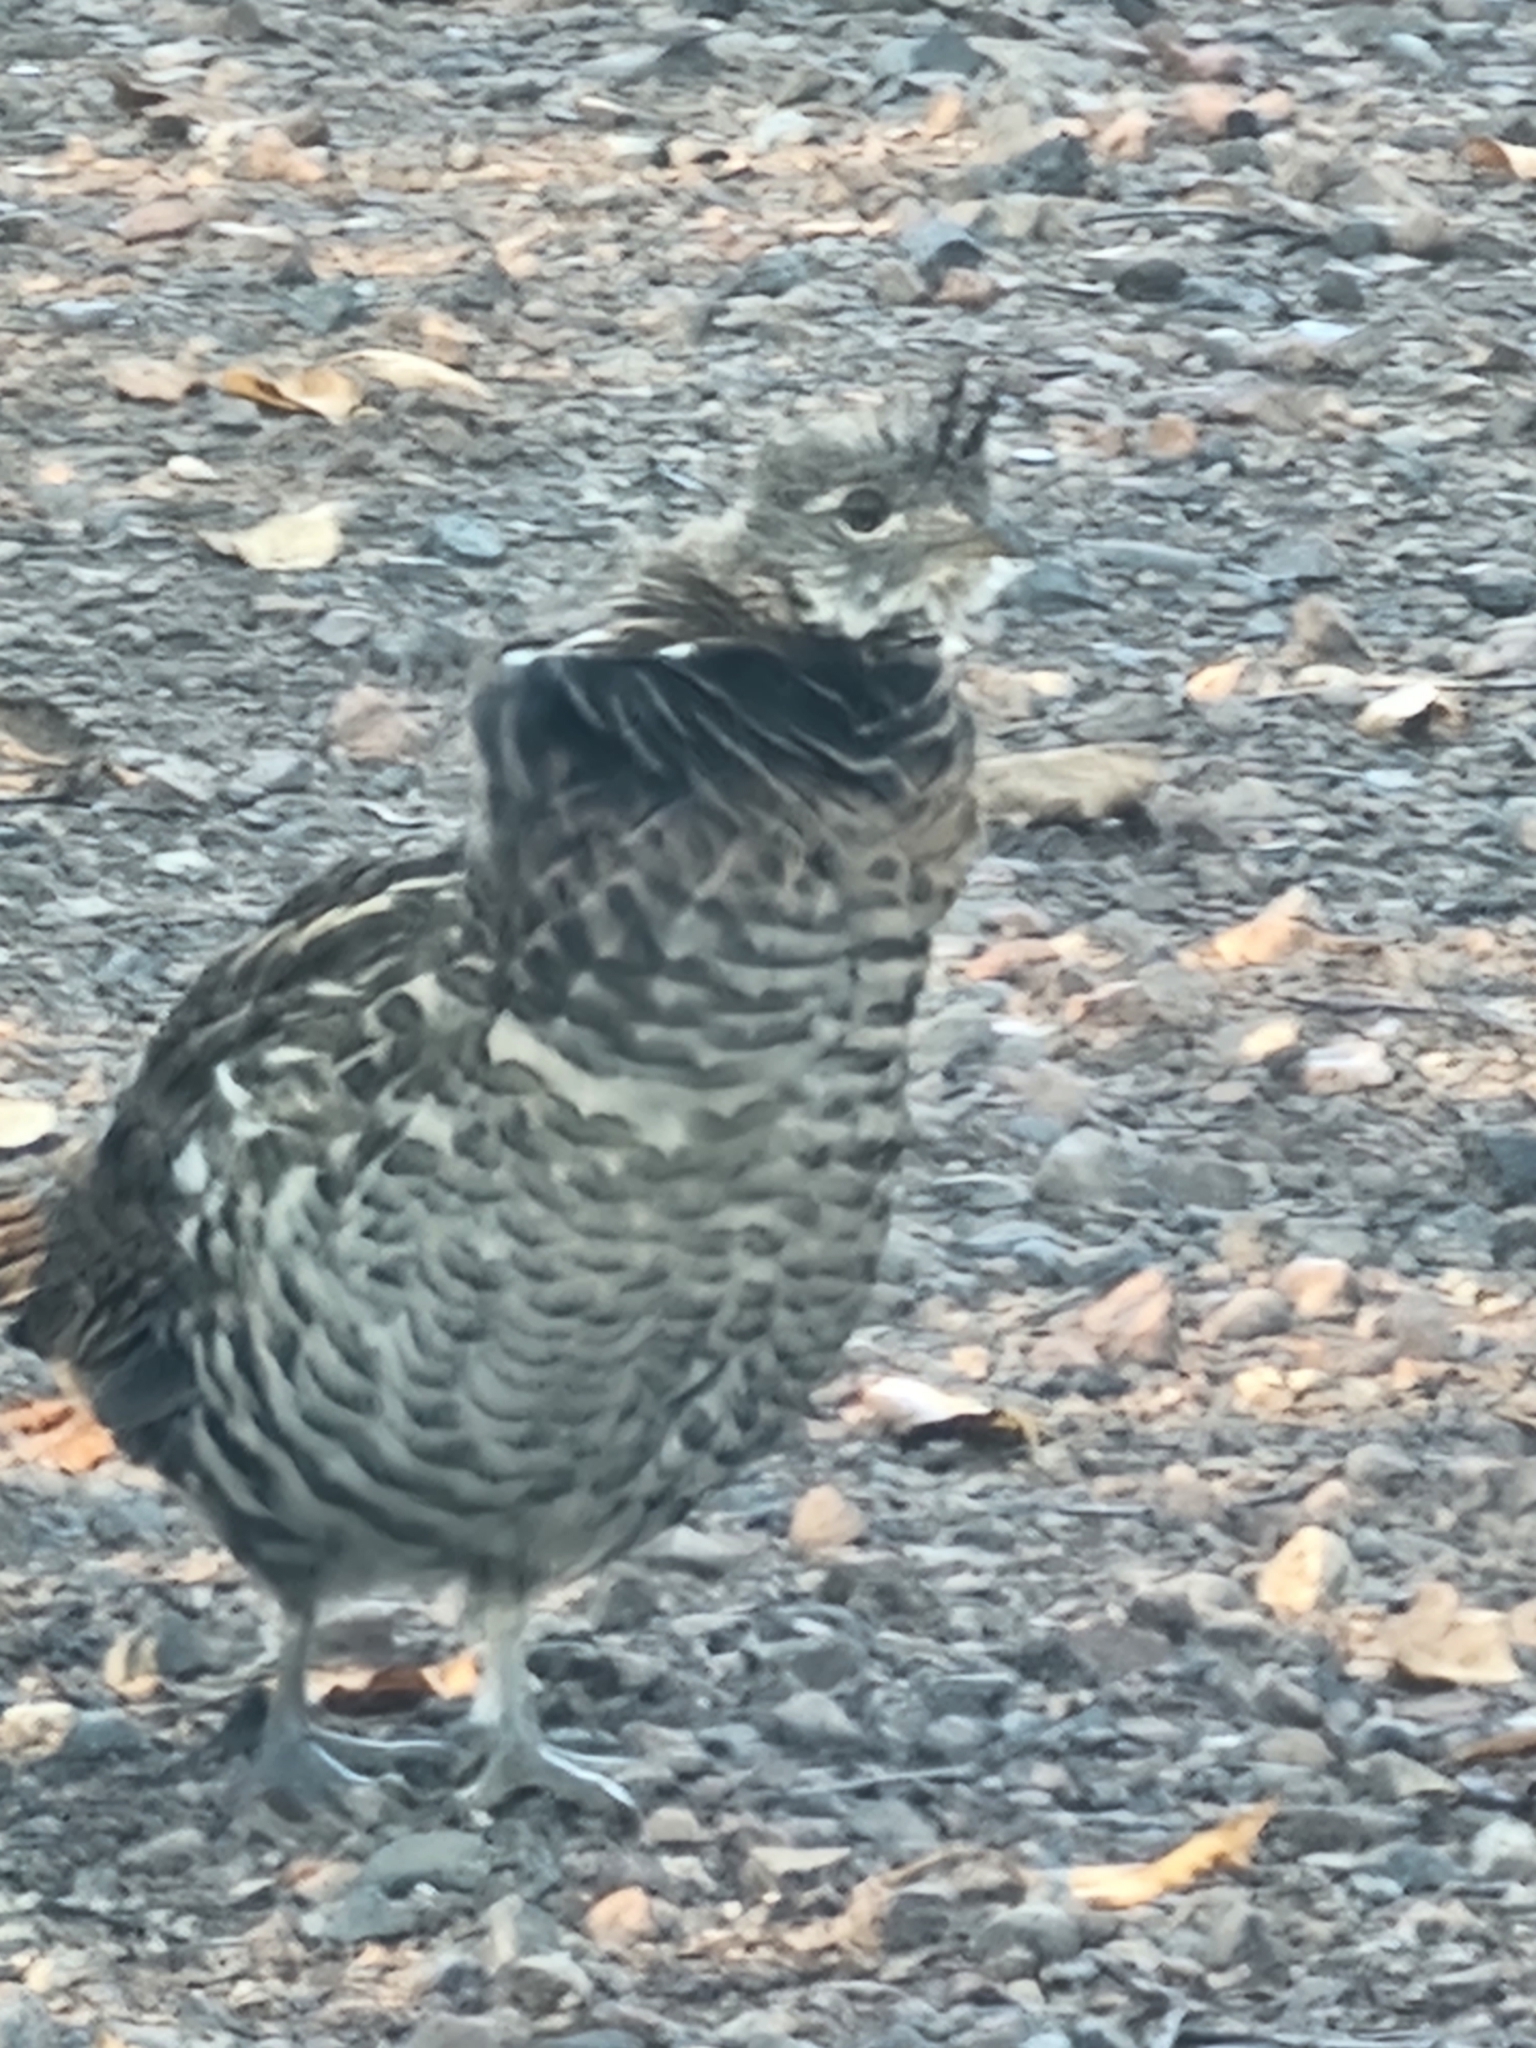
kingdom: Animalia
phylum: Chordata
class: Aves
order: Galliformes
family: Phasianidae
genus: Bonasa
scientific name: Bonasa umbellus
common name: Ruffed grouse
